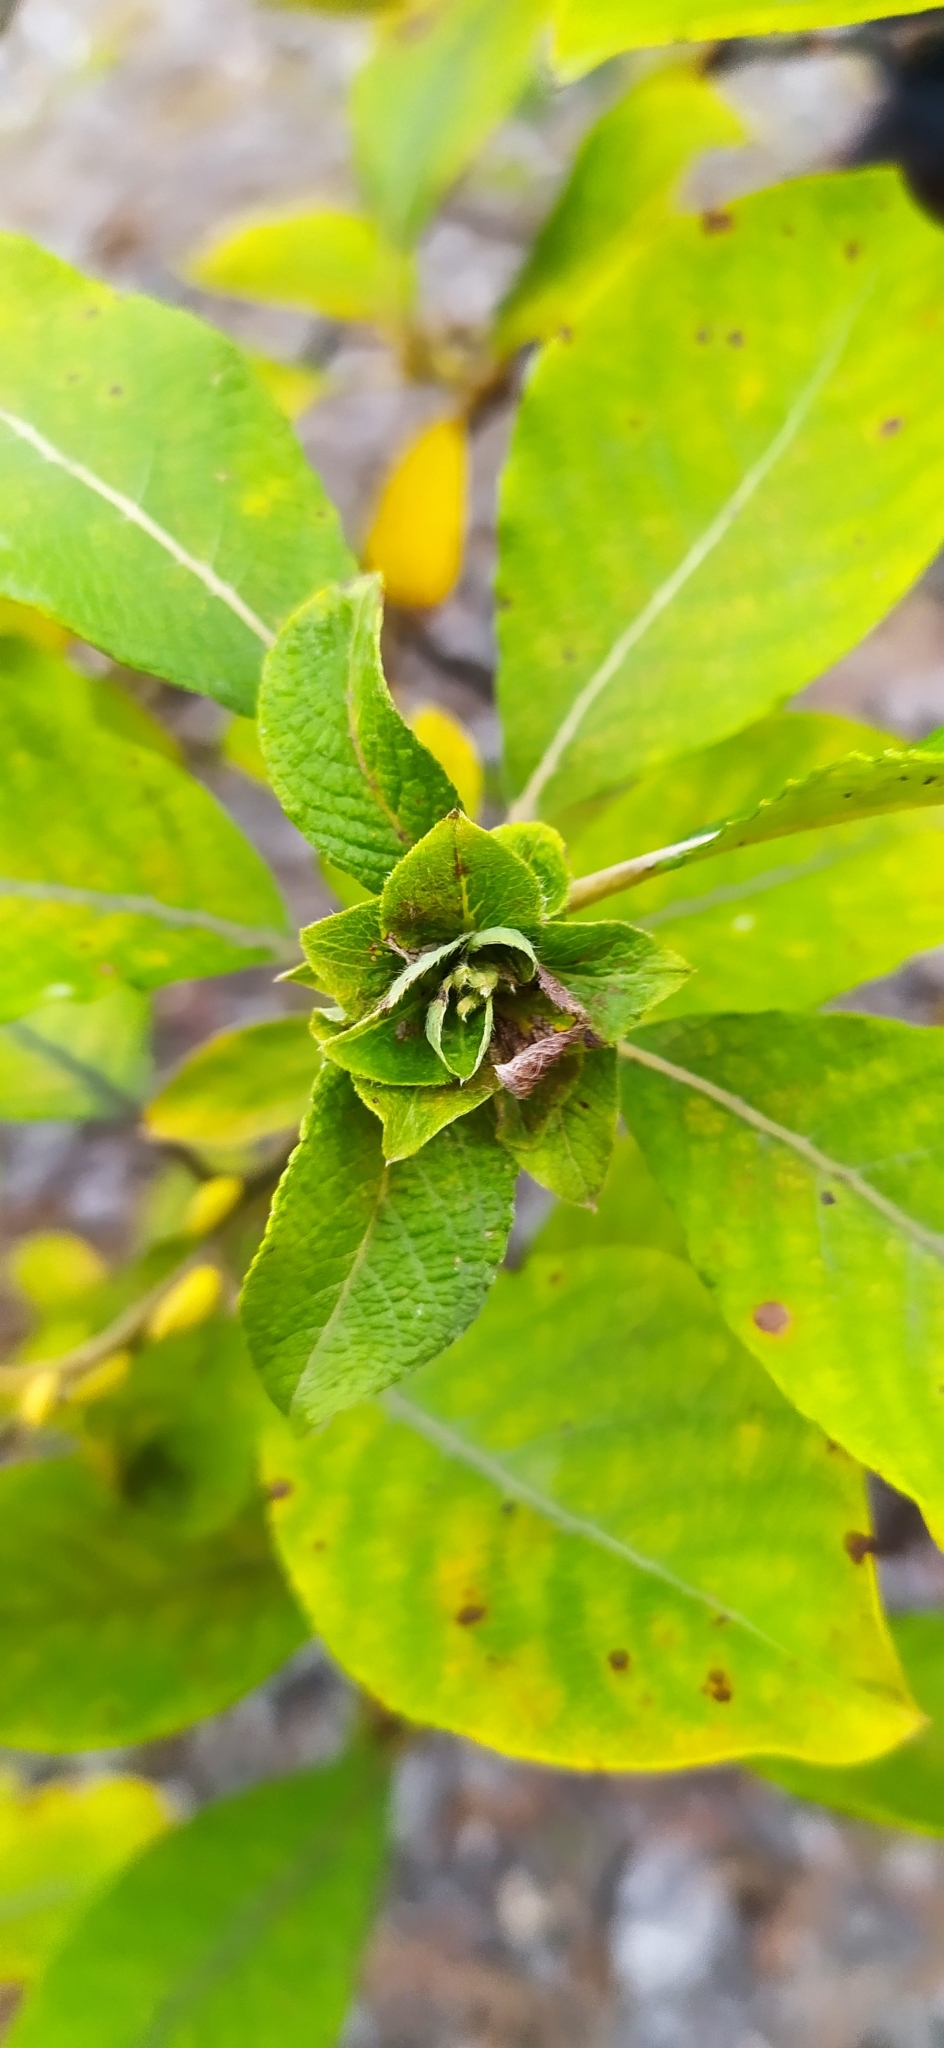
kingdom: Animalia
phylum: Arthropoda
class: Insecta
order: Diptera
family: Cecidomyiidae
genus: Rabdophaga
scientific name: Rabdophaga rosaria
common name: Willow rose gall midge
